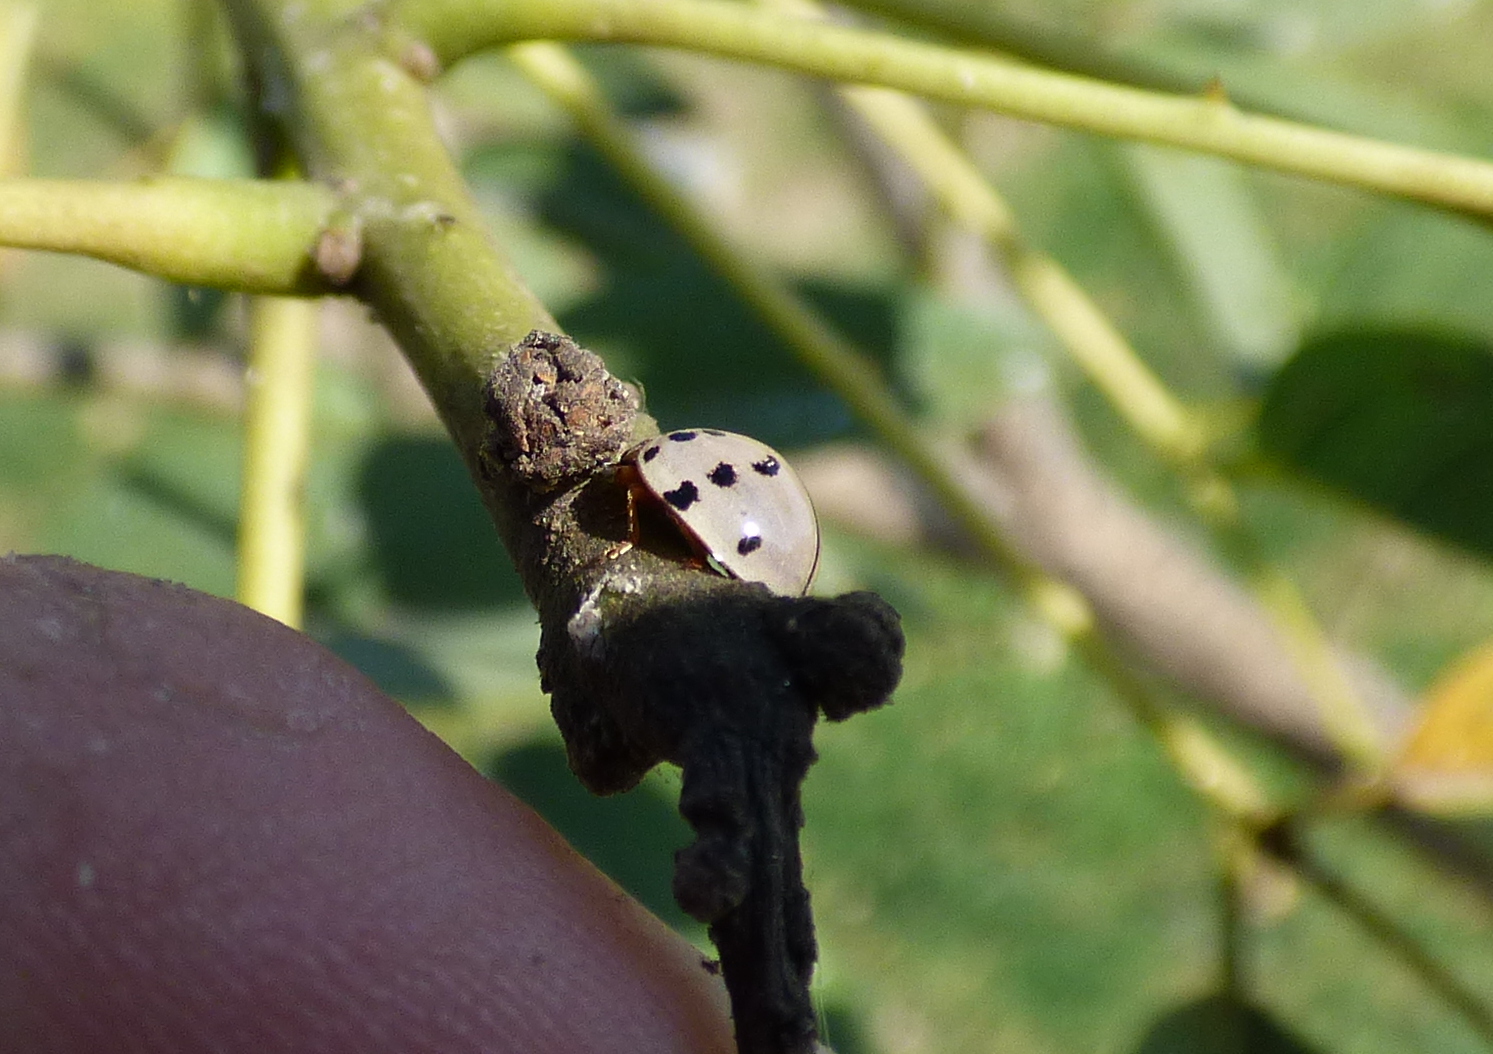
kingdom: Animalia
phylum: Arthropoda
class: Insecta
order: Coleoptera
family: Coccinellidae
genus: Olla
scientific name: Olla v-nigrum
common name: Ashy gray lady beetle
